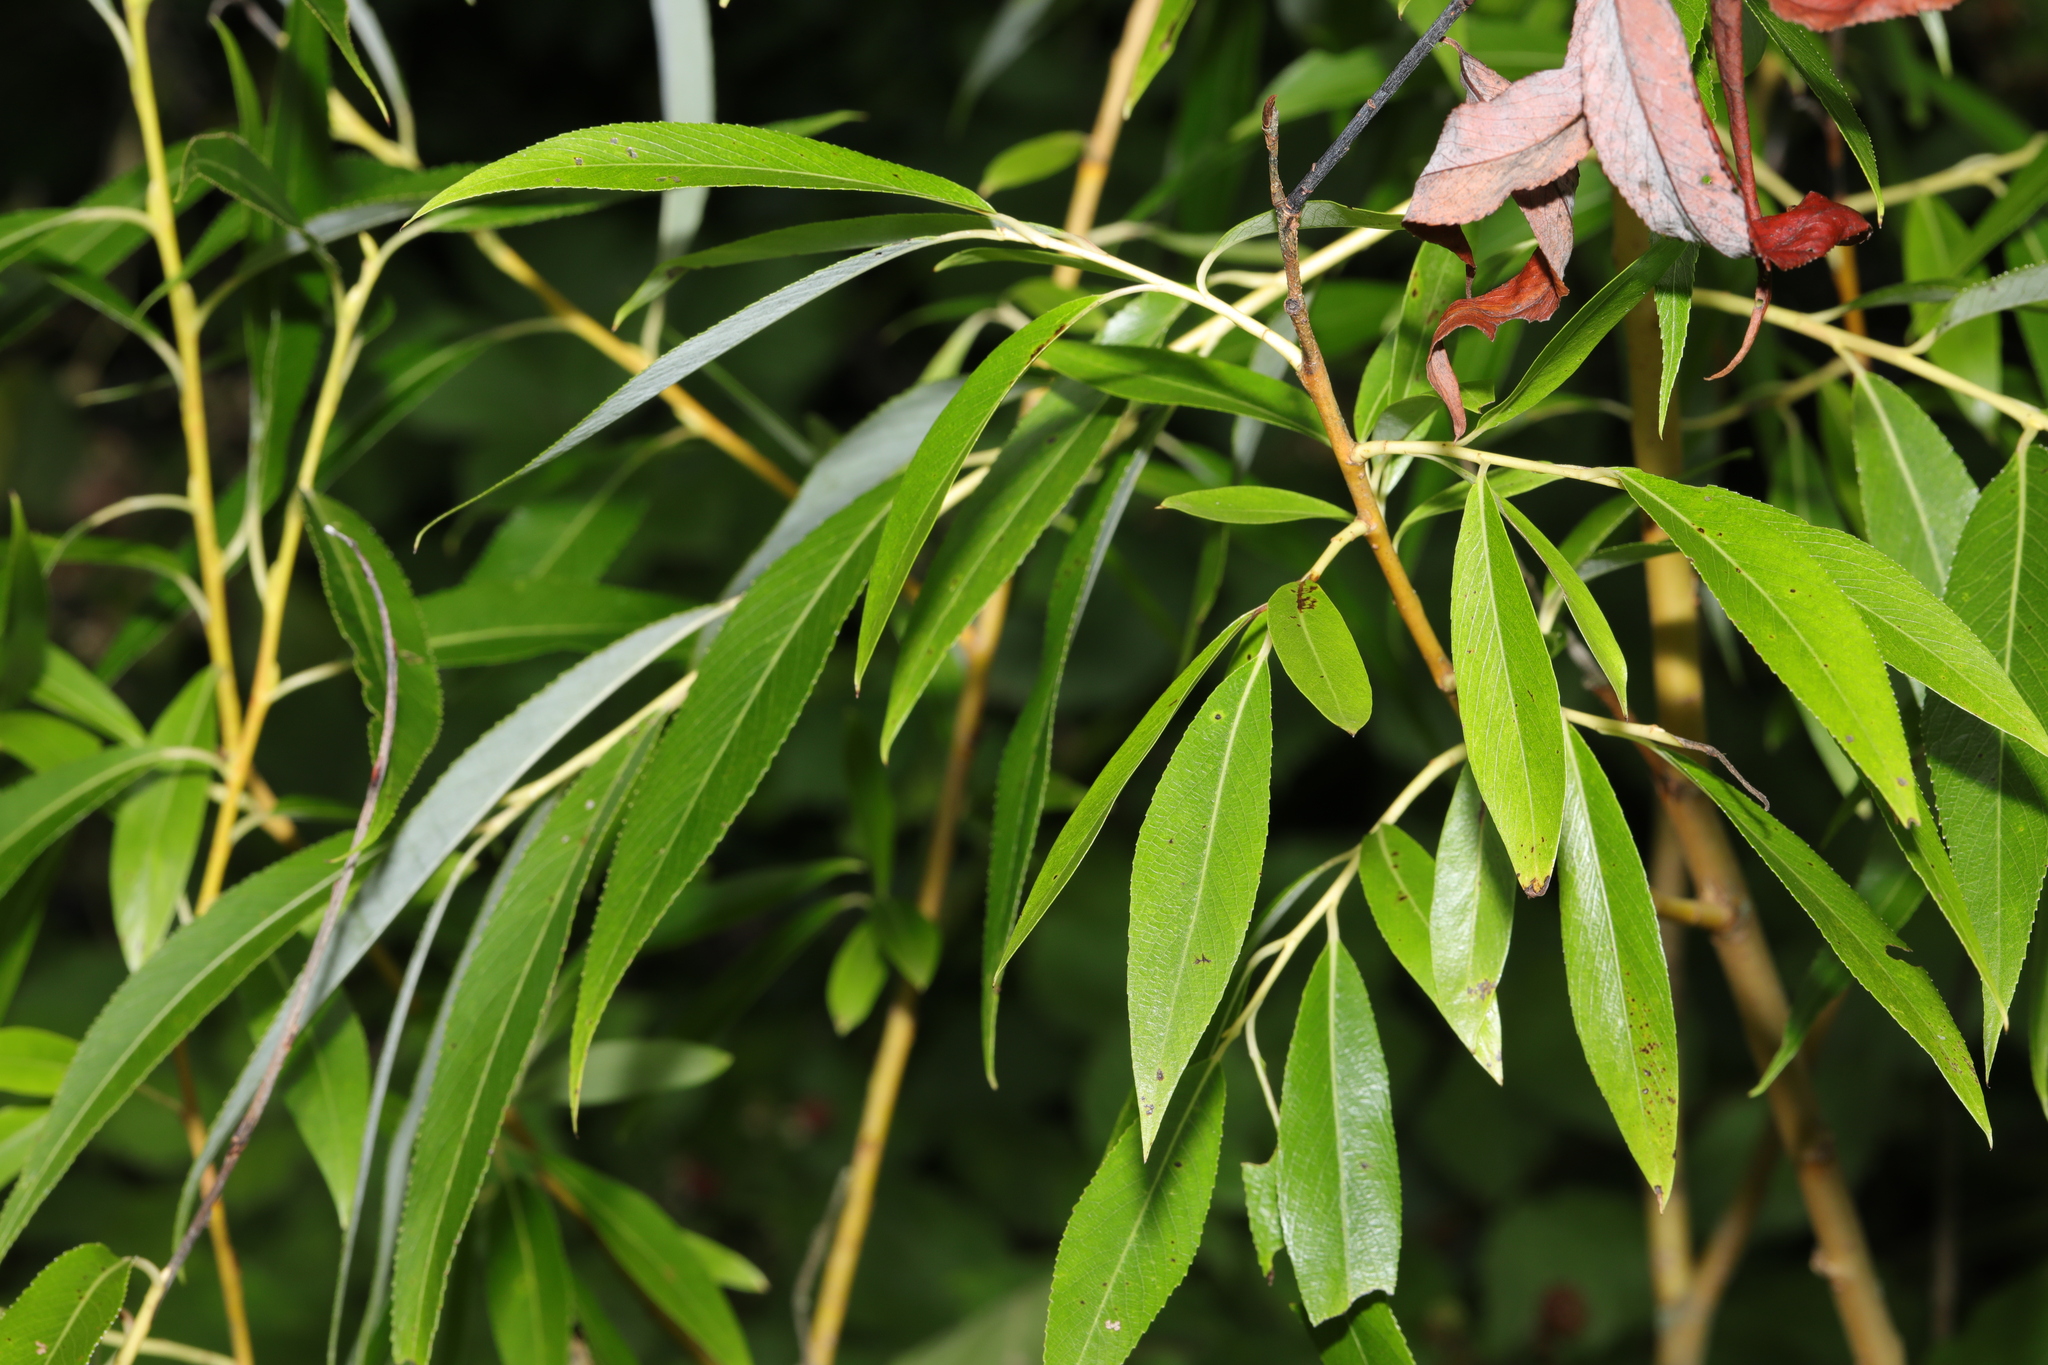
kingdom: Plantae
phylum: Tracheophyta
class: Magnoliopsida
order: Malpighiales
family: Salicaceae
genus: Salix
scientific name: Salix fragilis
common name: Crack willow
